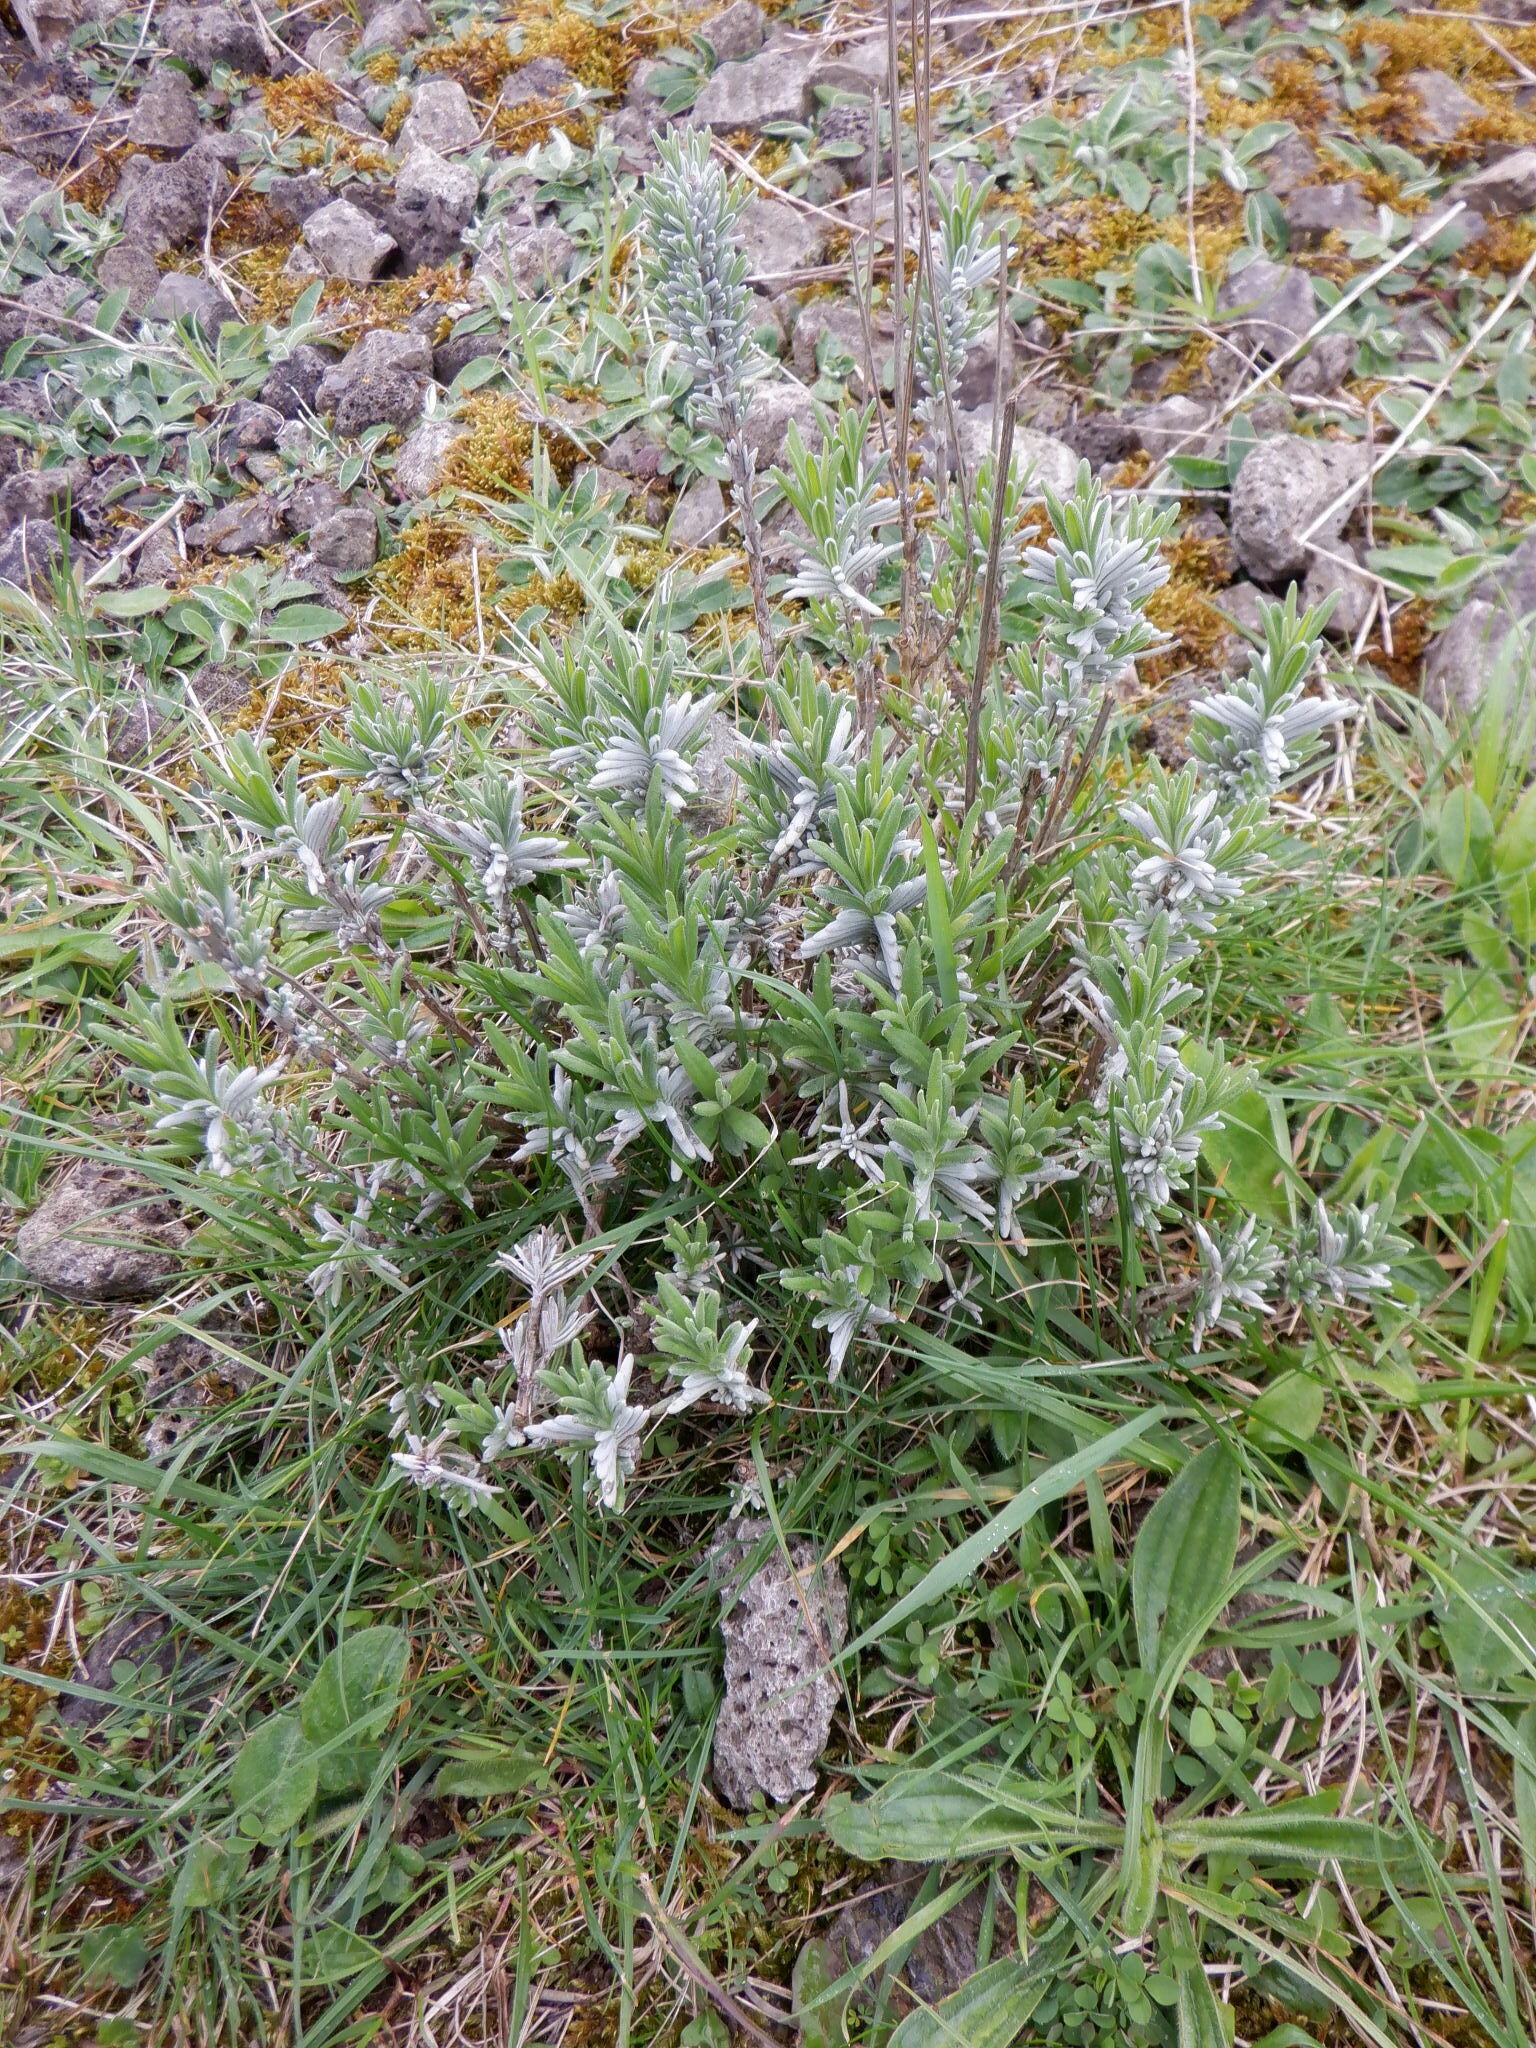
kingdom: Plantae
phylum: Tracheophyta
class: Magnoliopsida
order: Lamiales
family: Lamiaceae
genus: Lavandula
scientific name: Lavandula angustifolia
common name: Garden lavender
